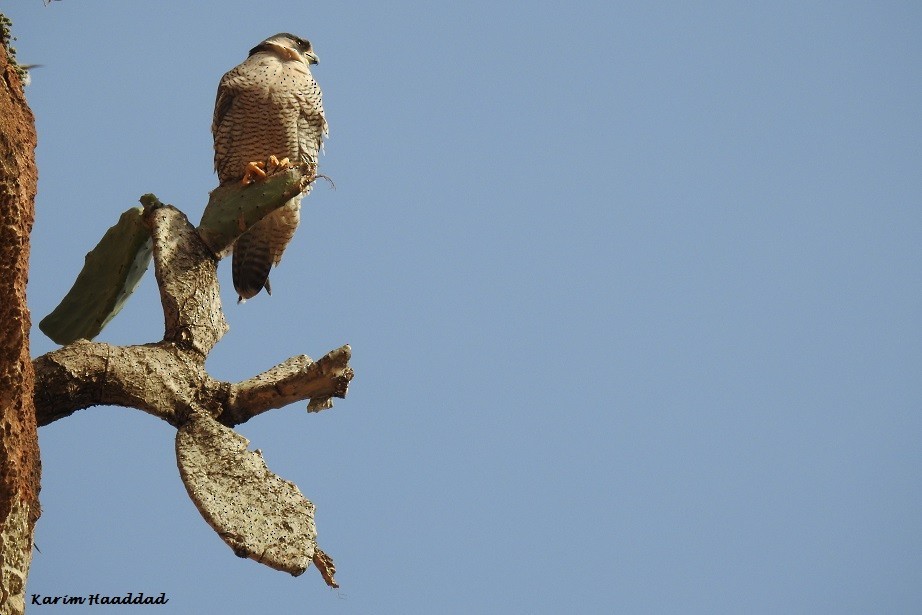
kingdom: Animalia
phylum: Chordata
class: Aves
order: Falconiformes
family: Falconidae
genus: Falco
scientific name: Falco peregrinus
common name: Peregrine falcon
